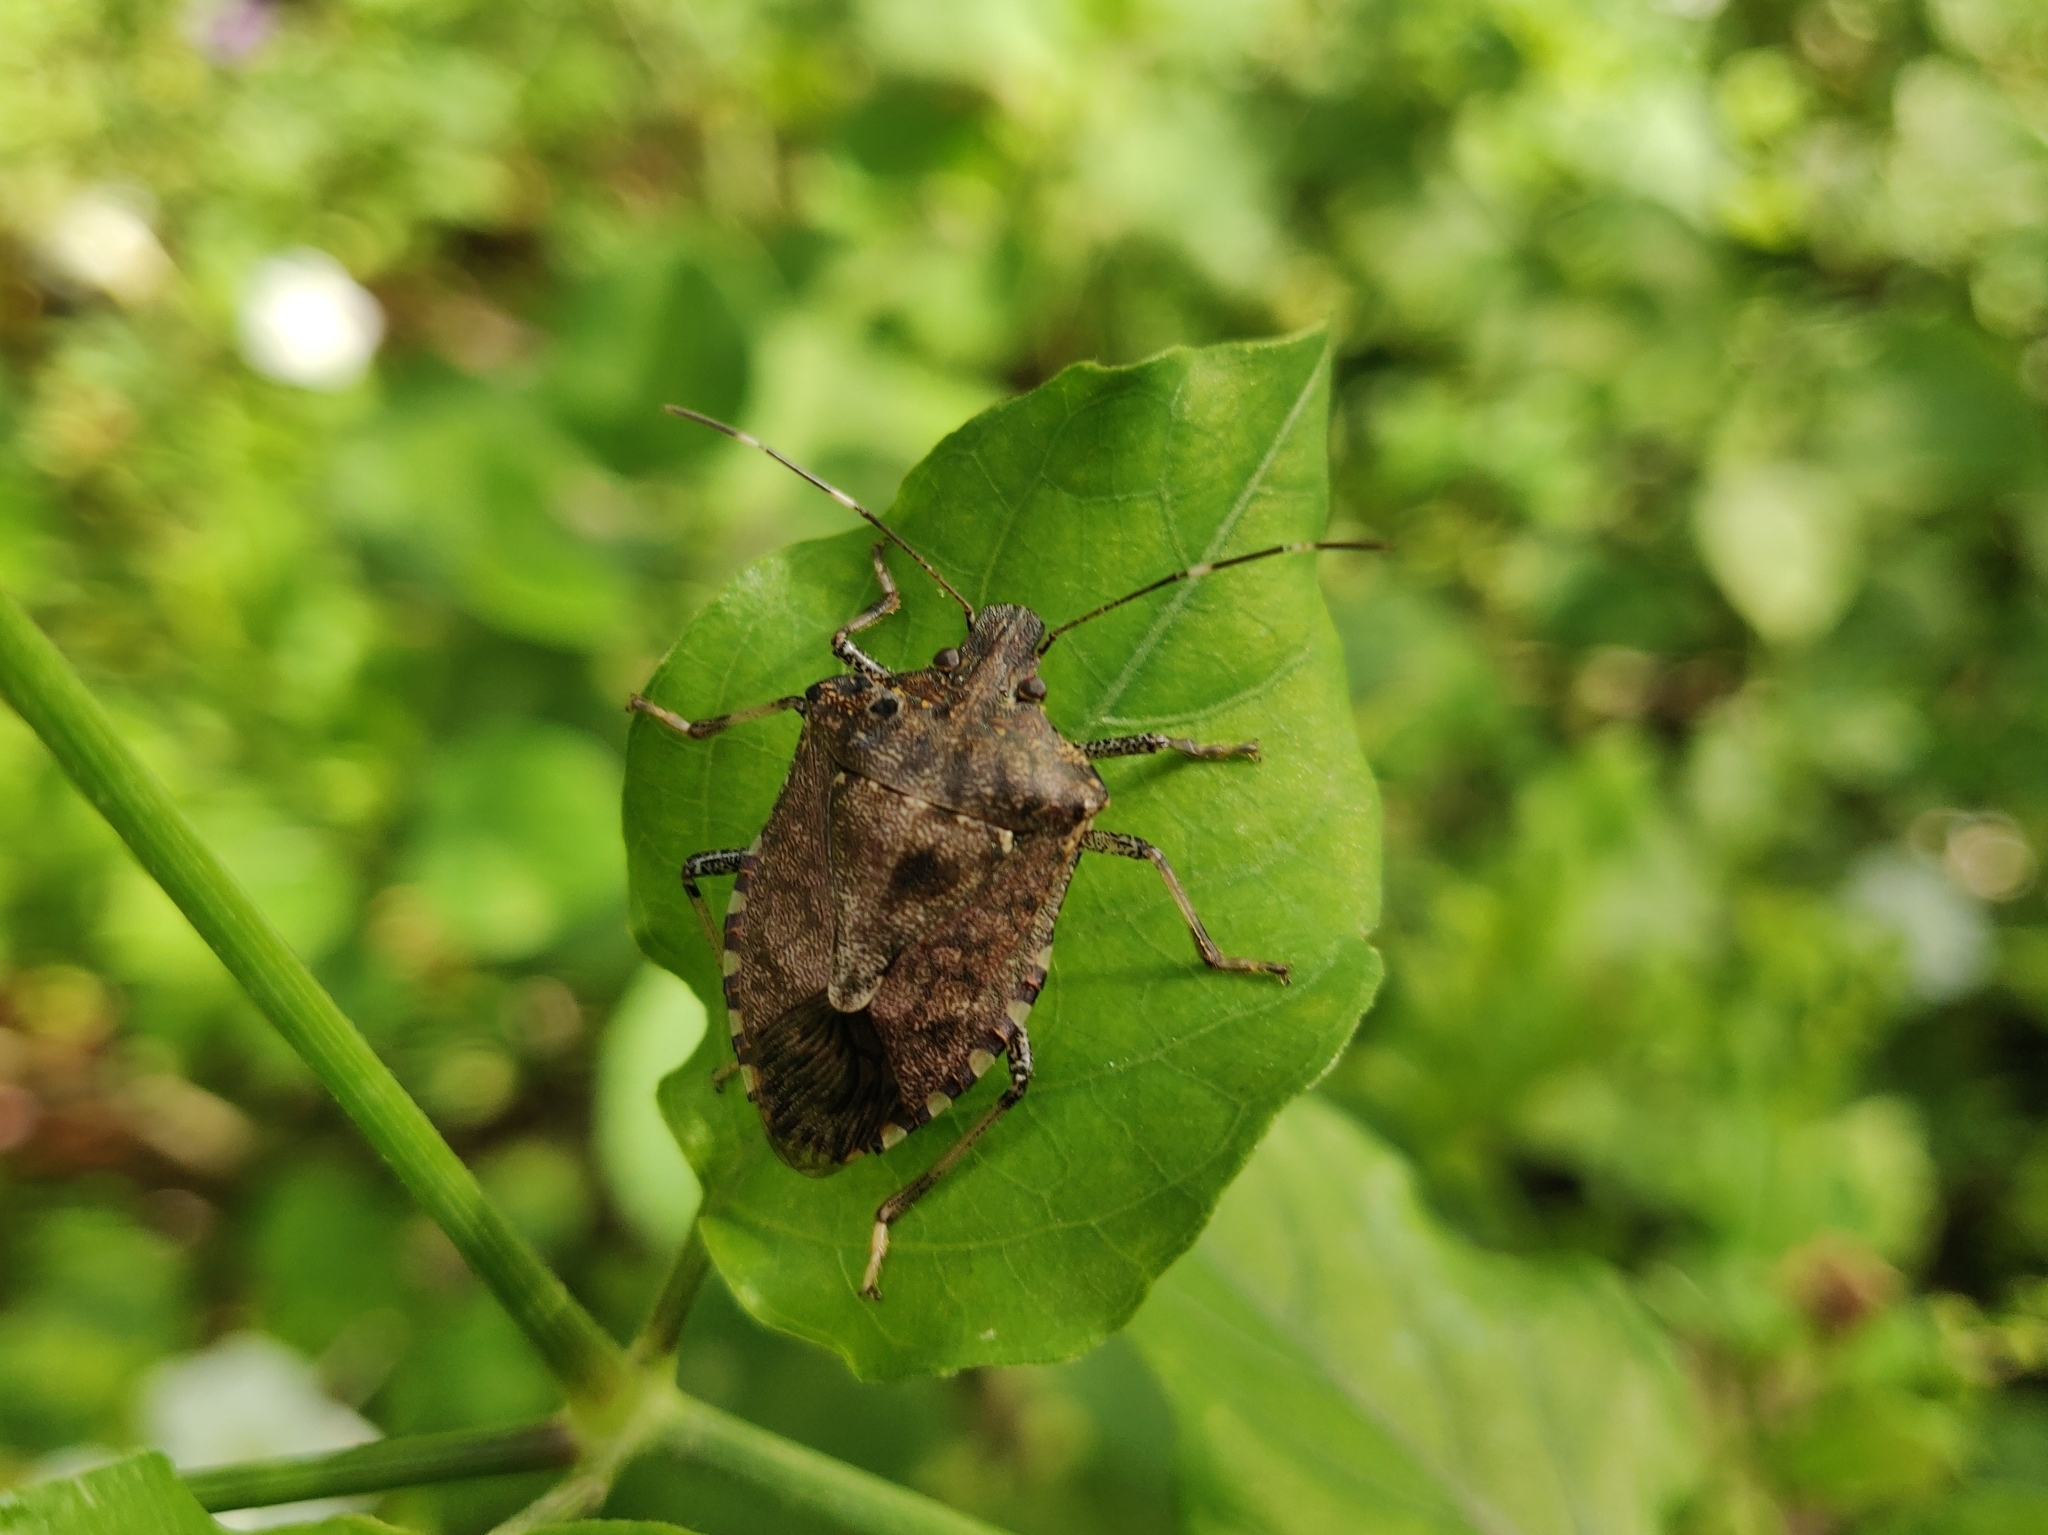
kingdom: Animalia
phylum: Arthropoda
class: Insecta
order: Hemiptera
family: Pentatomidae
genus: Halyomorpha
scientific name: Halyomorpha picus
